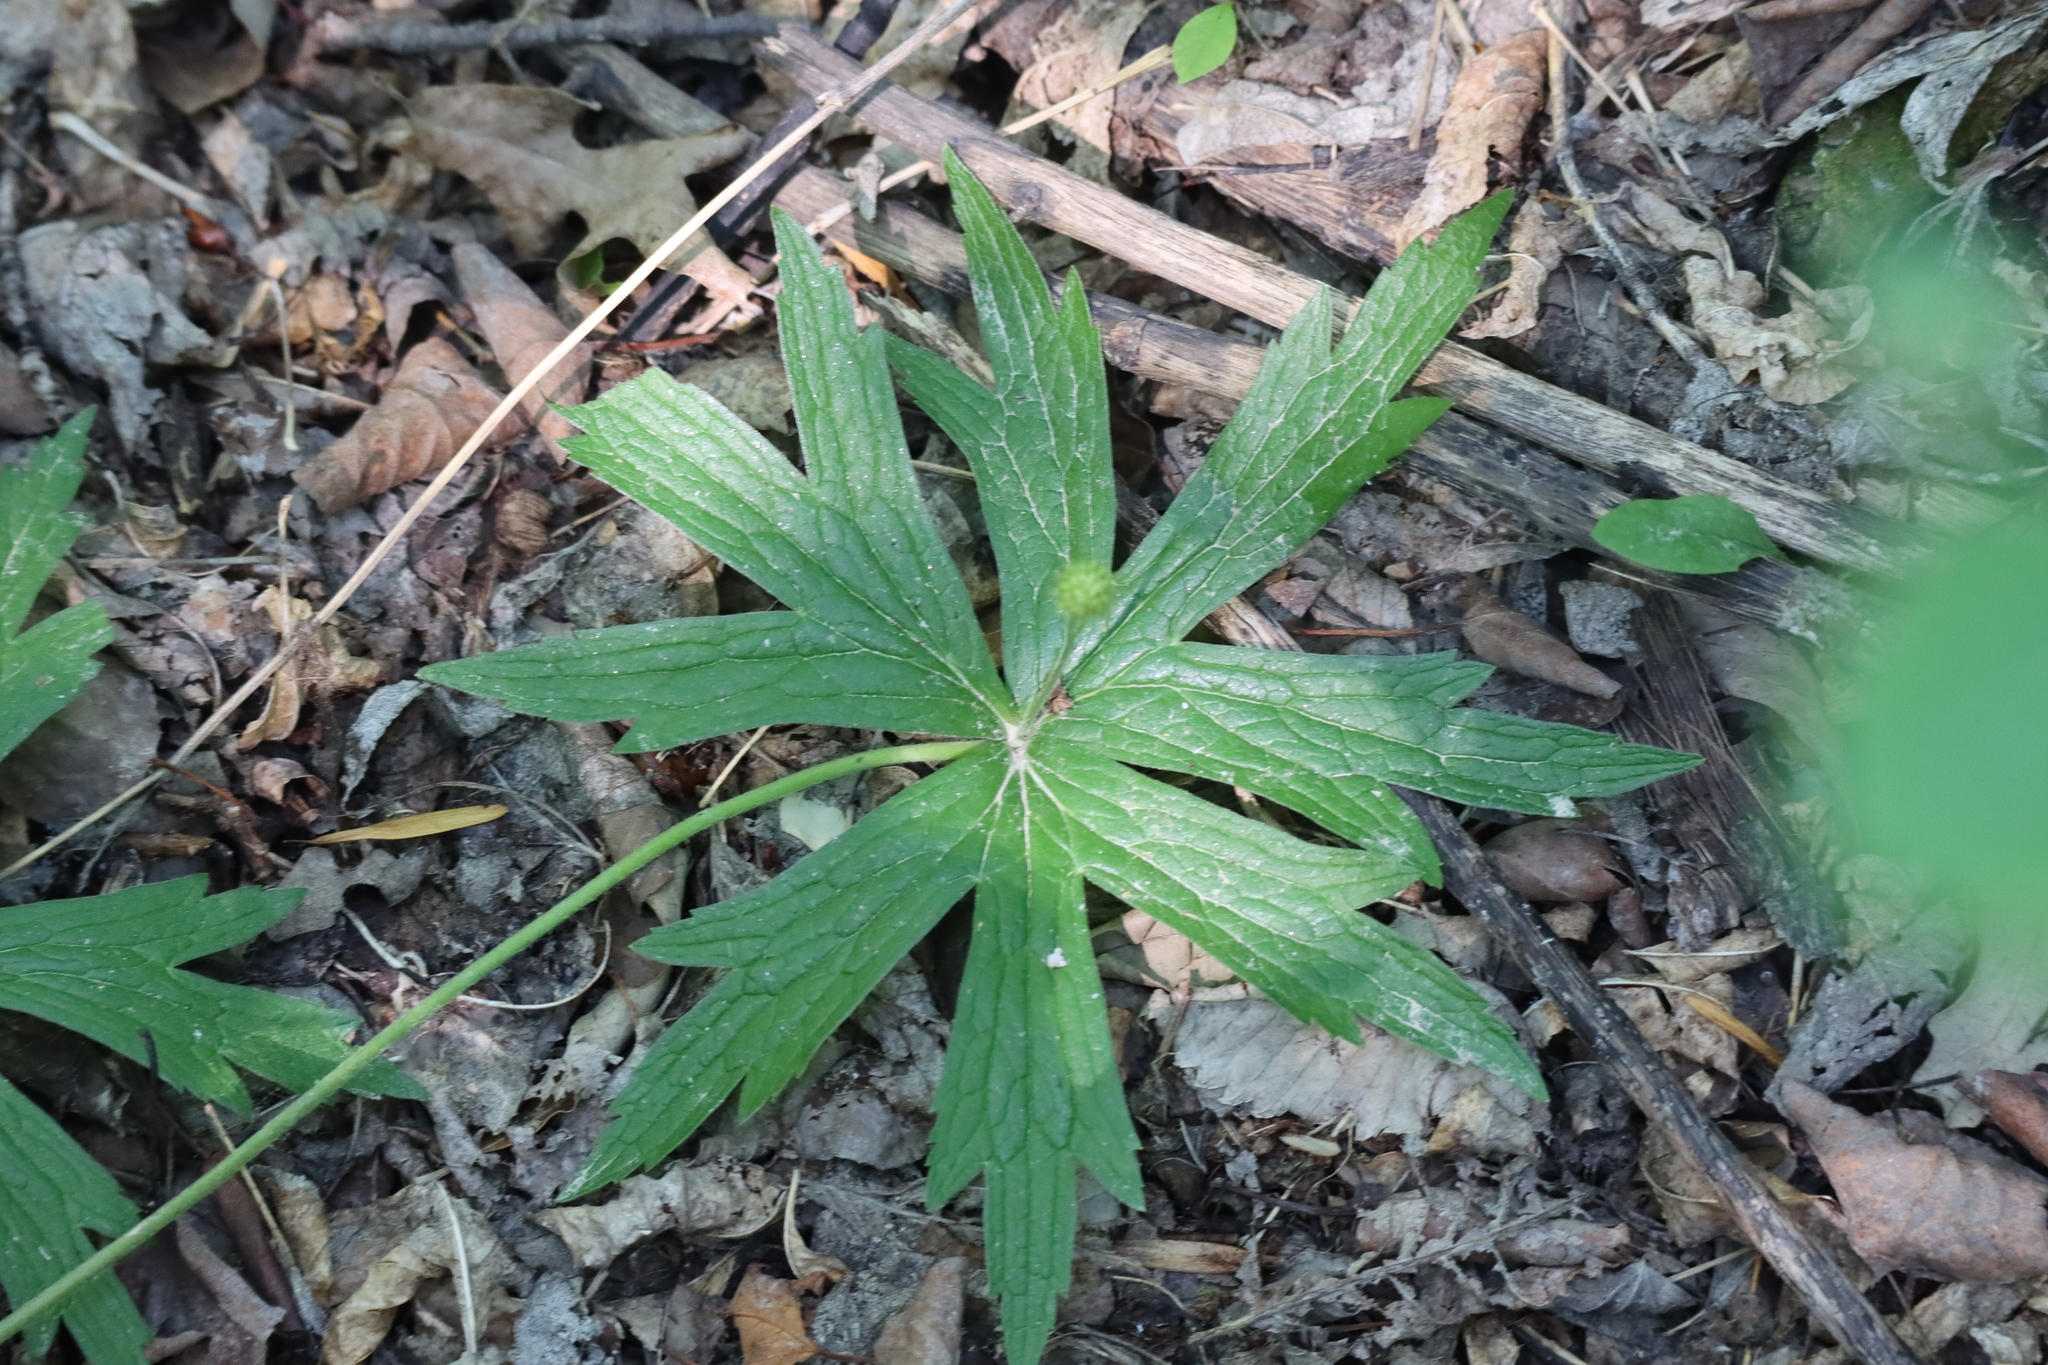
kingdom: Plantae
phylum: Tracheophyta
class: Magnoliopsida
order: Ranunculales
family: Ranunculaceae
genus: Anemonastrum
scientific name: Anemonastrum canadense
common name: Canada anemone
